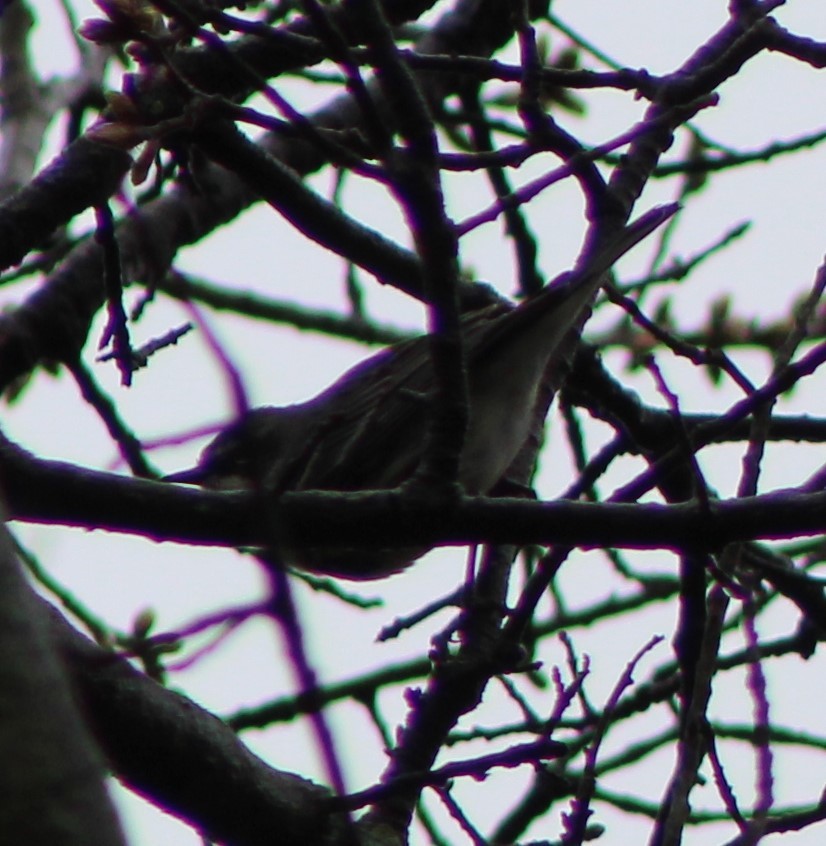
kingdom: Animalia
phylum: Chordata
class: Aves
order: Passeriformes
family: Parulidae
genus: Setophaga
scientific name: Setophaga coronata
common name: Myrtle warbler
